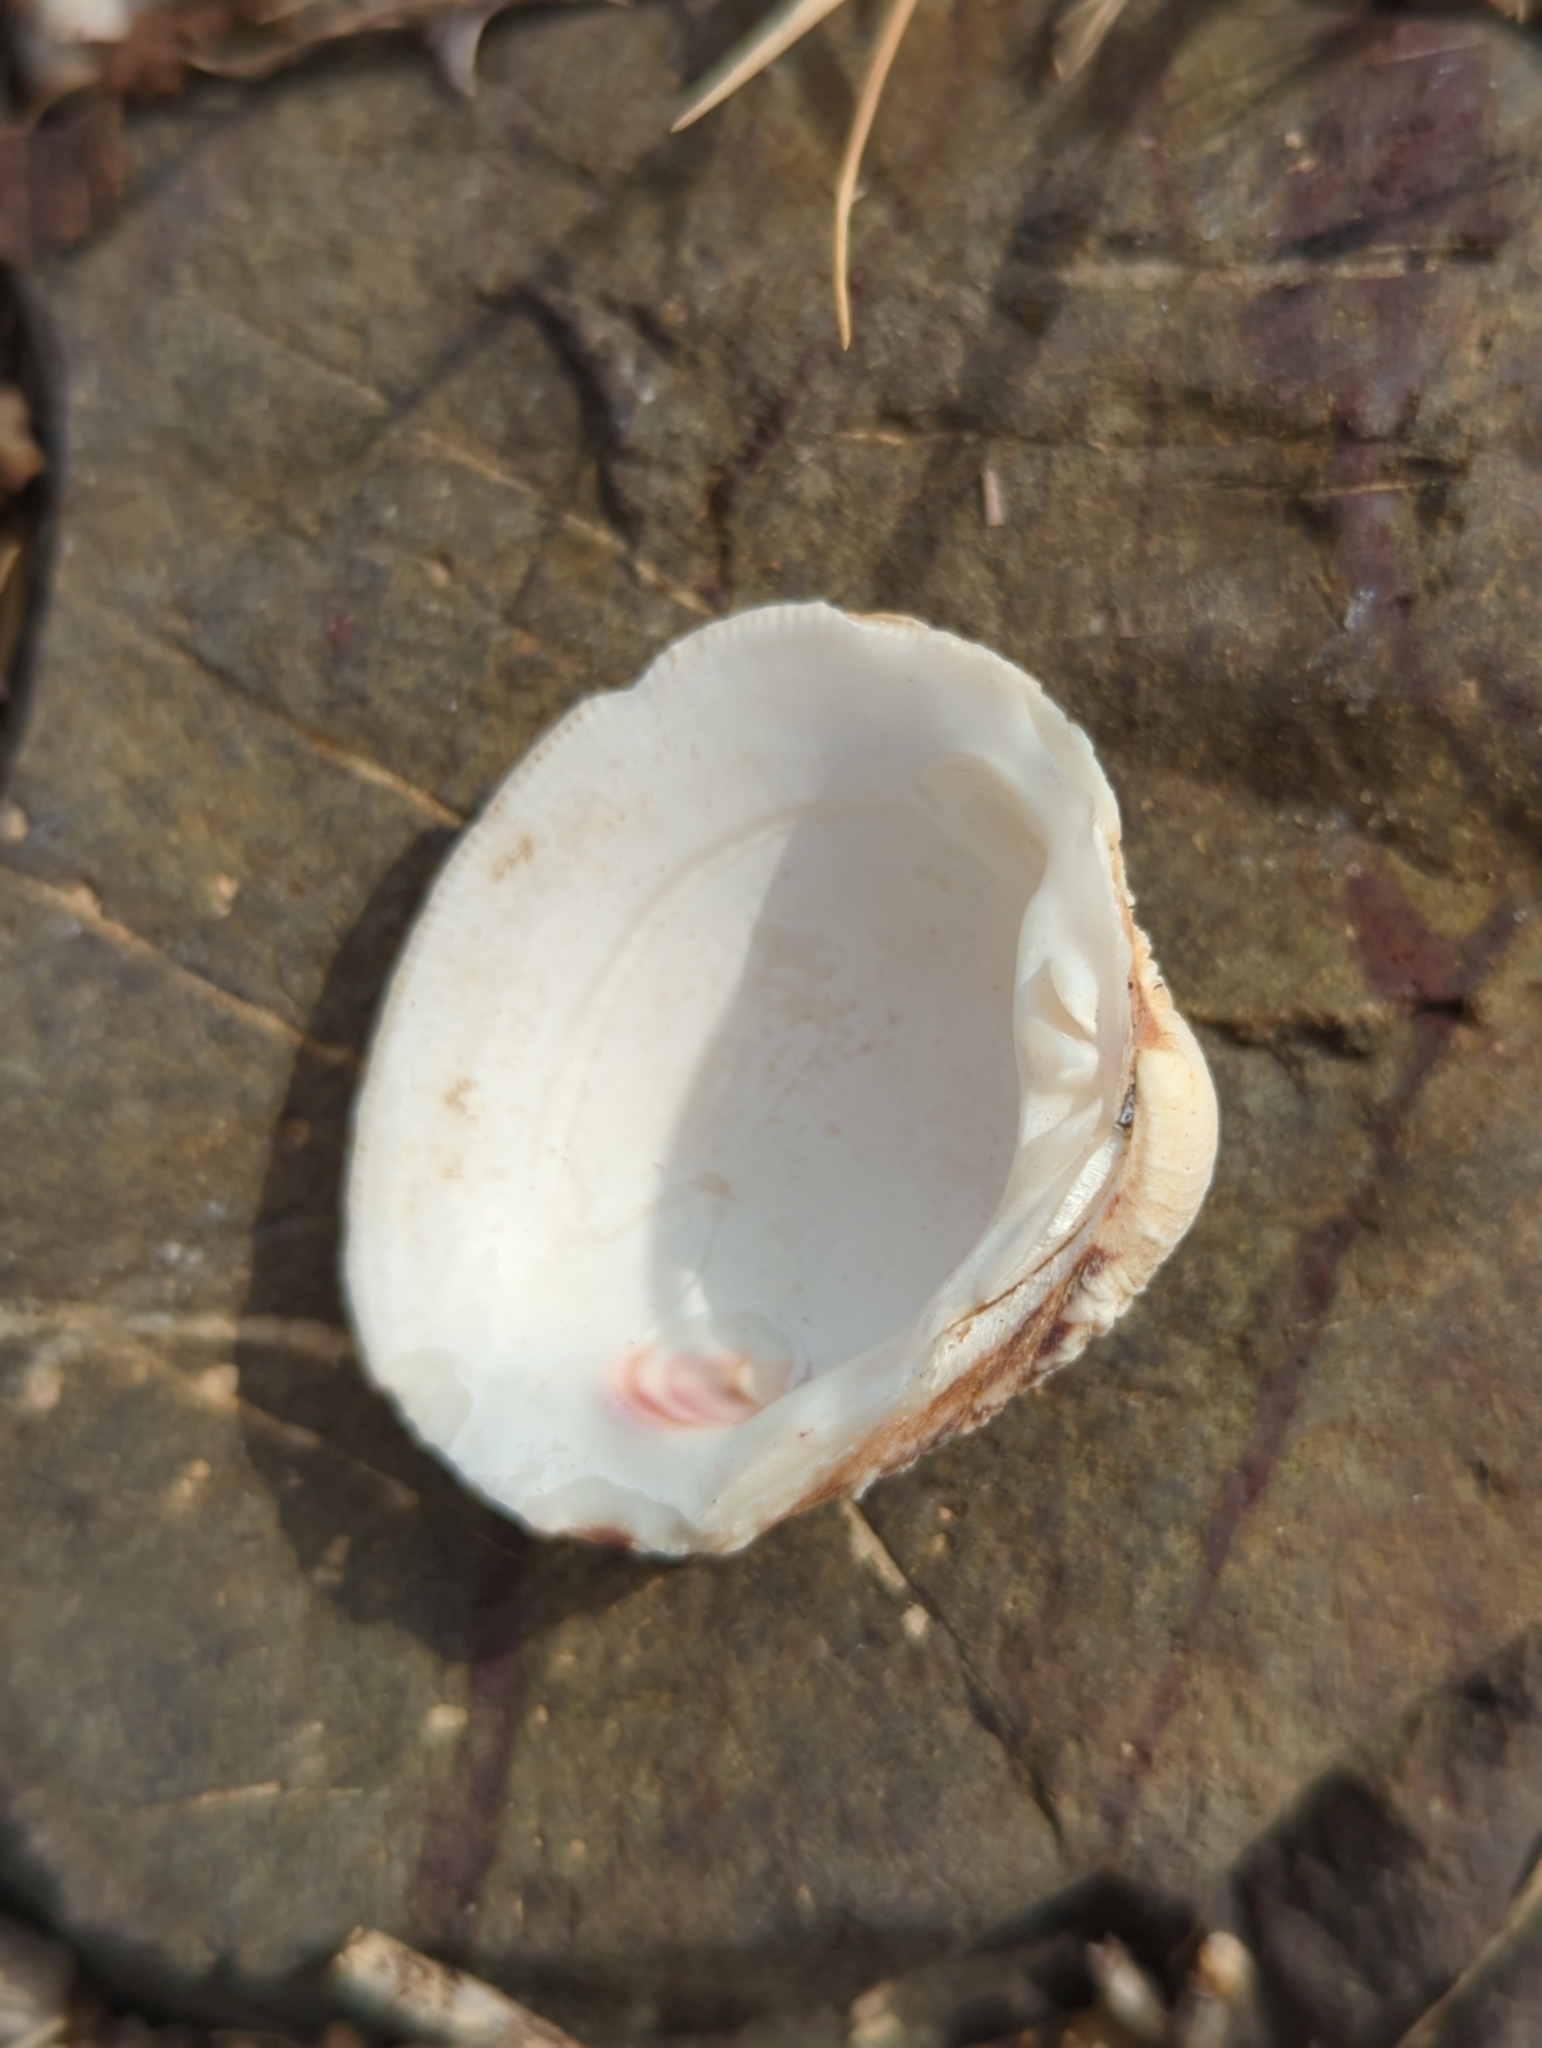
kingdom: Animalia
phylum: Mollusca
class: Bivalvia
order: Venerida
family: Veneridae
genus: Venus
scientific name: Venus verrucosa
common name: Warty venus
